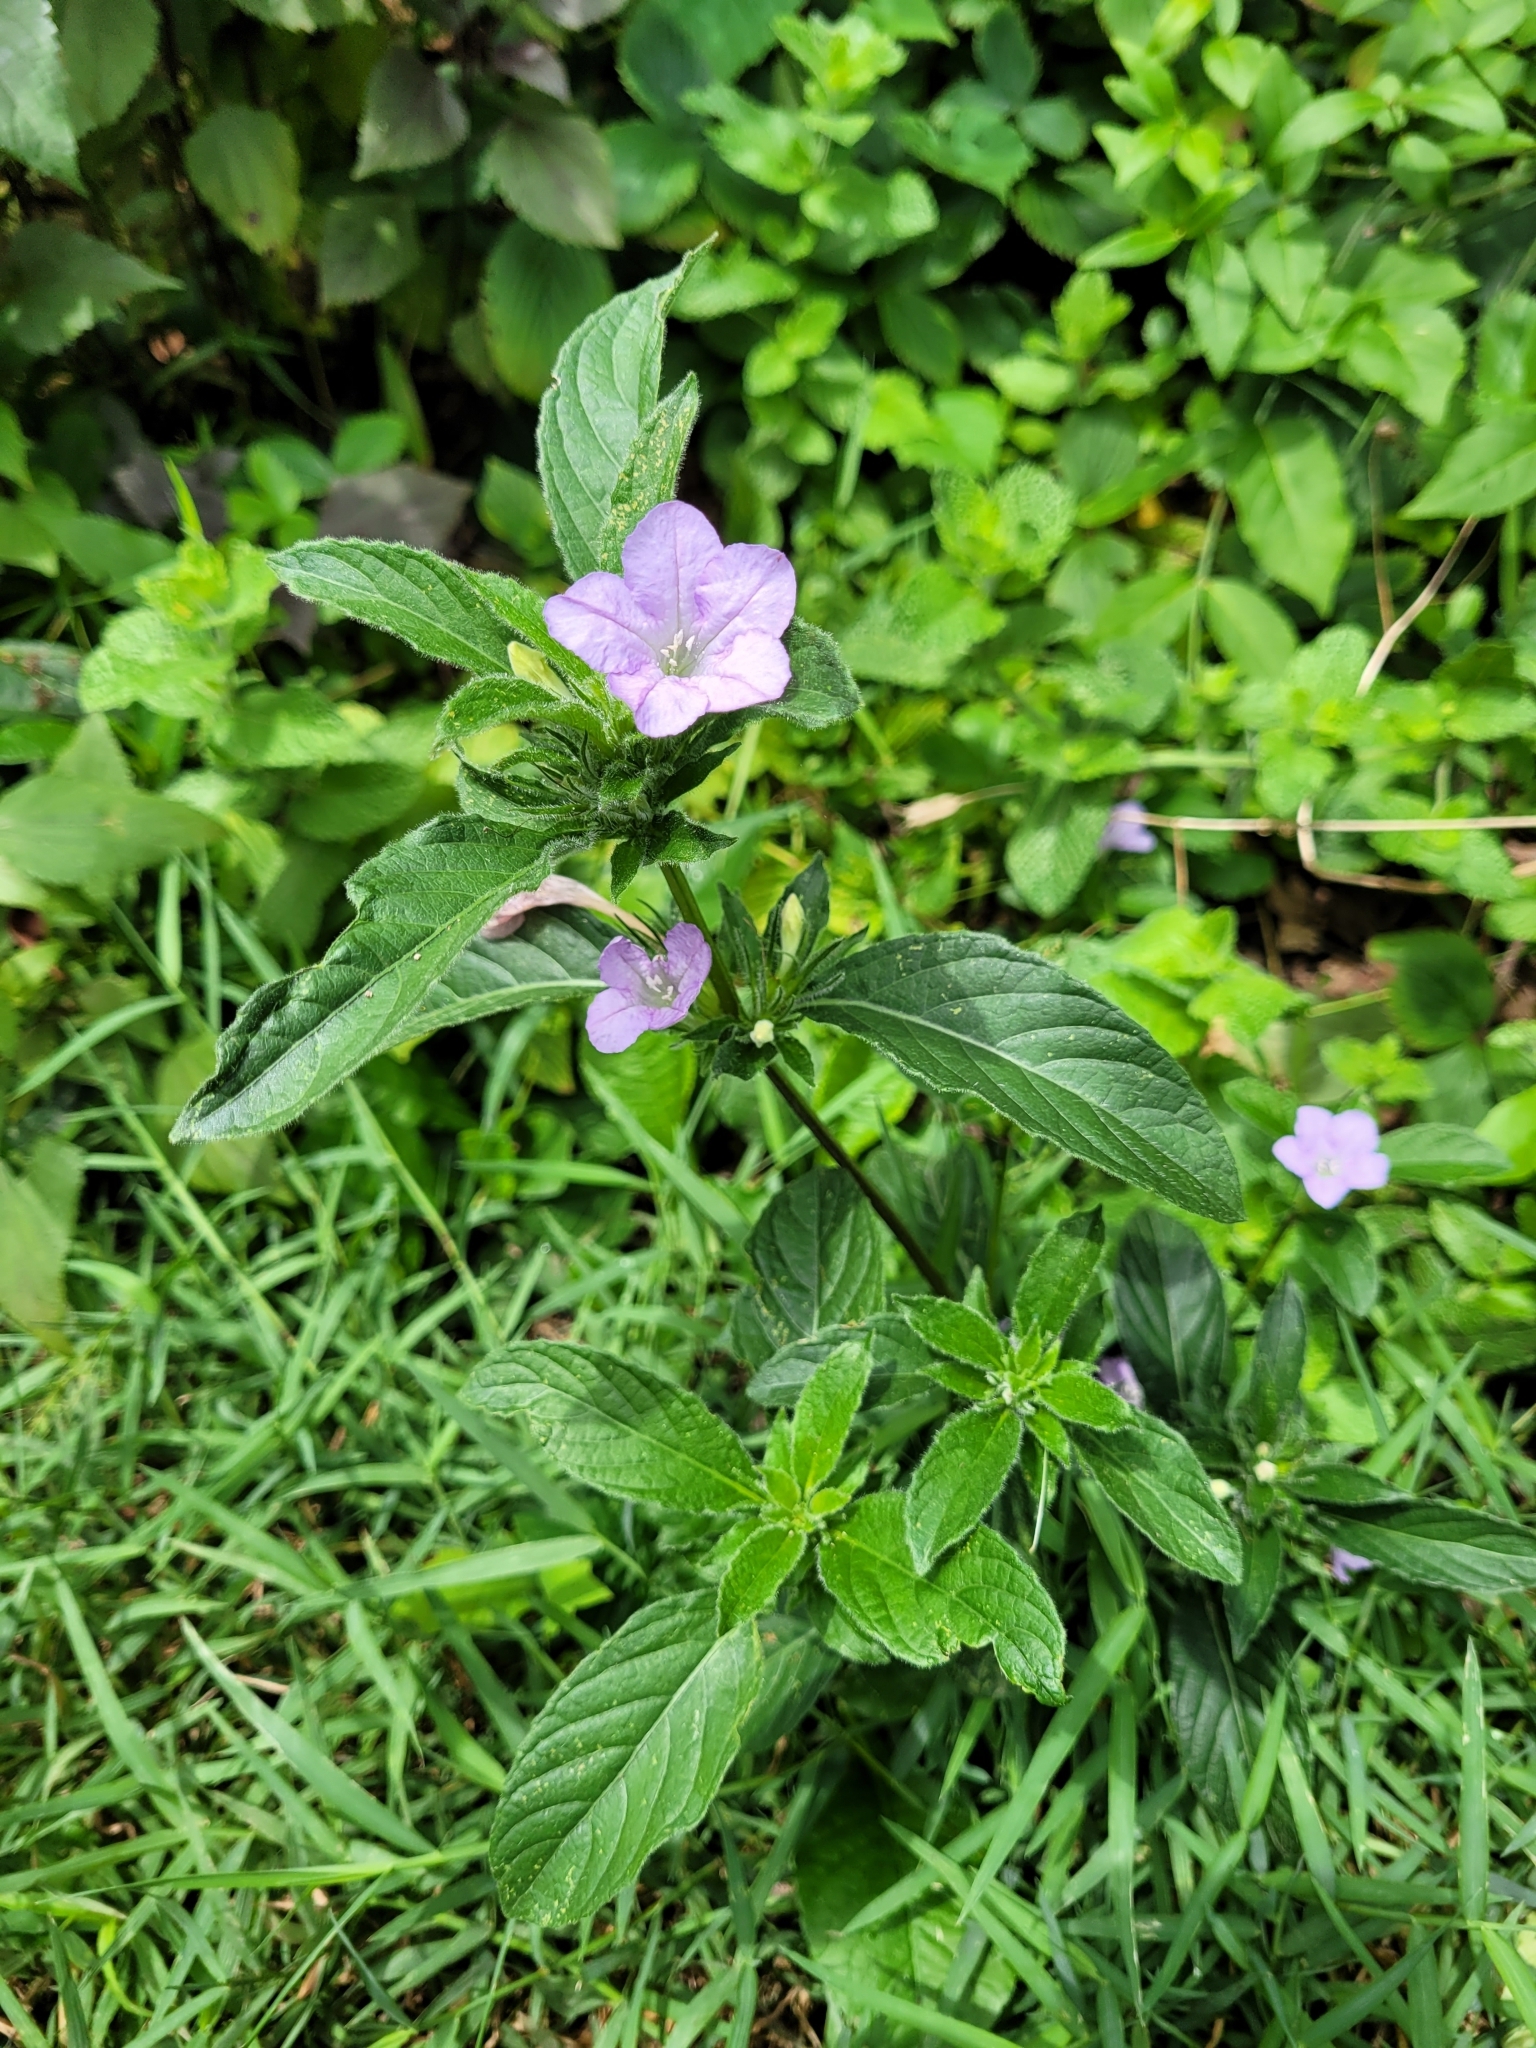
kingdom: Plantae
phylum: Tracheophyta
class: Magnoliopsida
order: Lamiales
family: Acanthaceae
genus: Ruellia
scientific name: Ruellia caroliniensis
